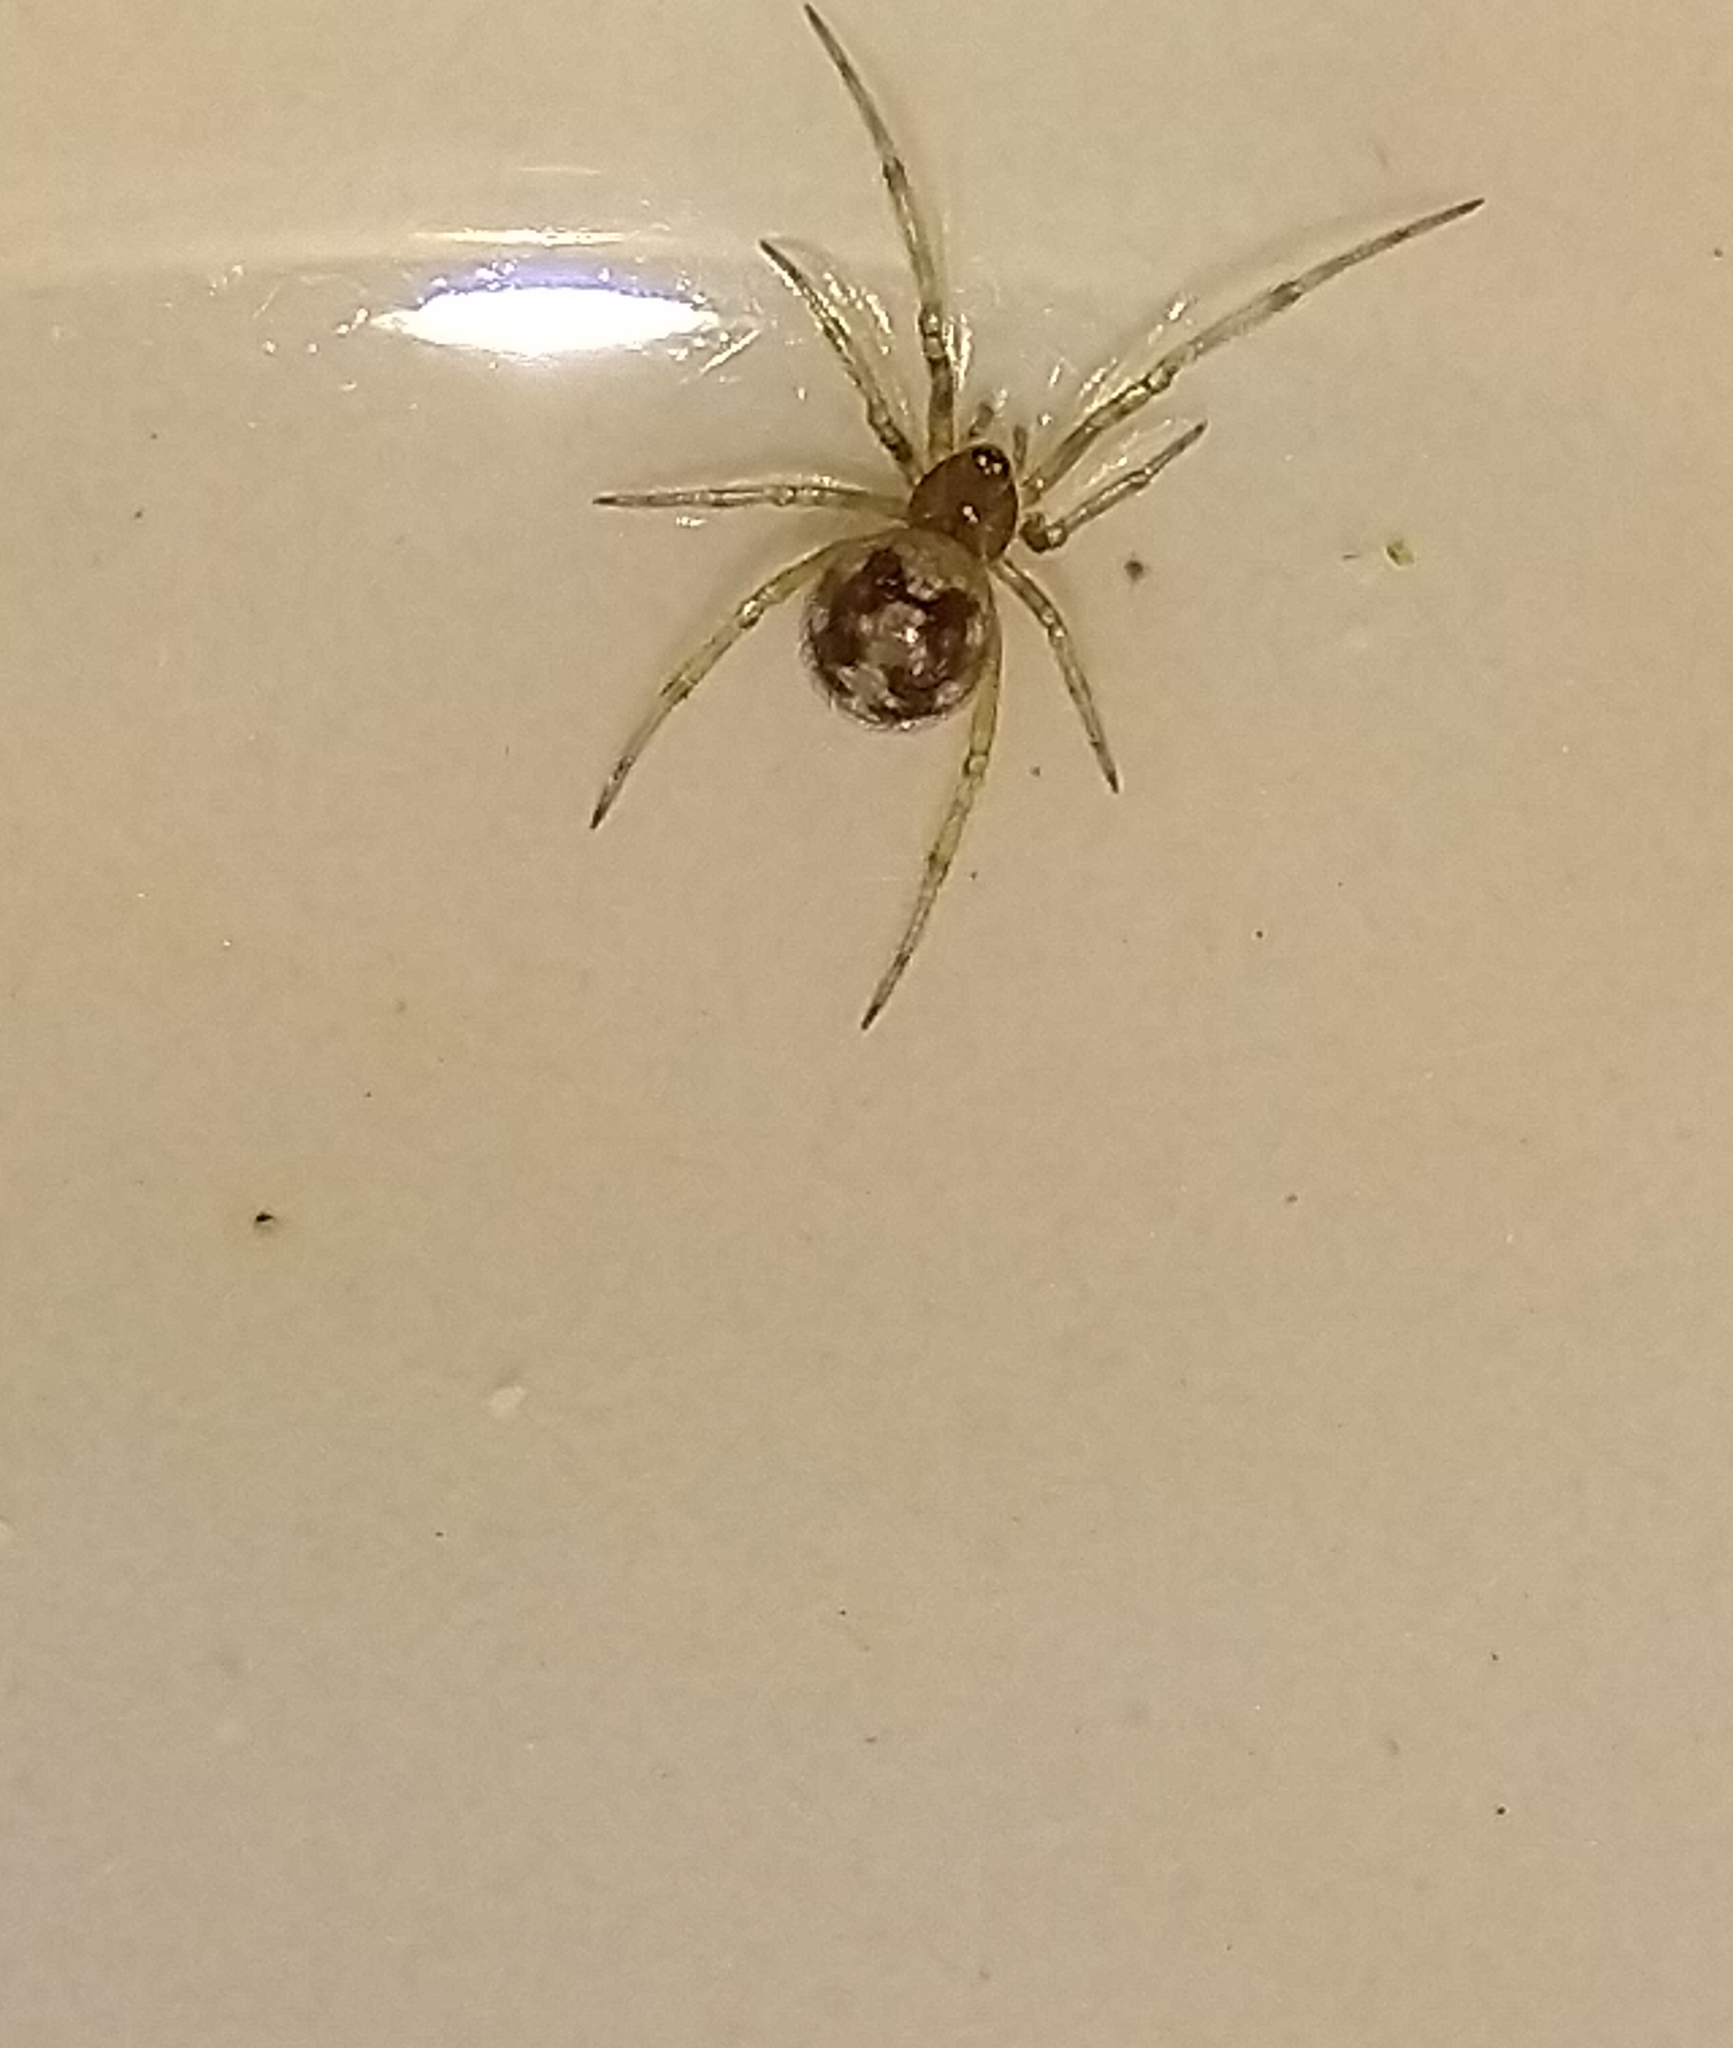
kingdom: Animalia
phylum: Arthropoda
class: Arachnida
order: Araneae
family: Theridiidae
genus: Steatoda
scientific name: Steatoda triangulosa
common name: Triangulate bud spider
